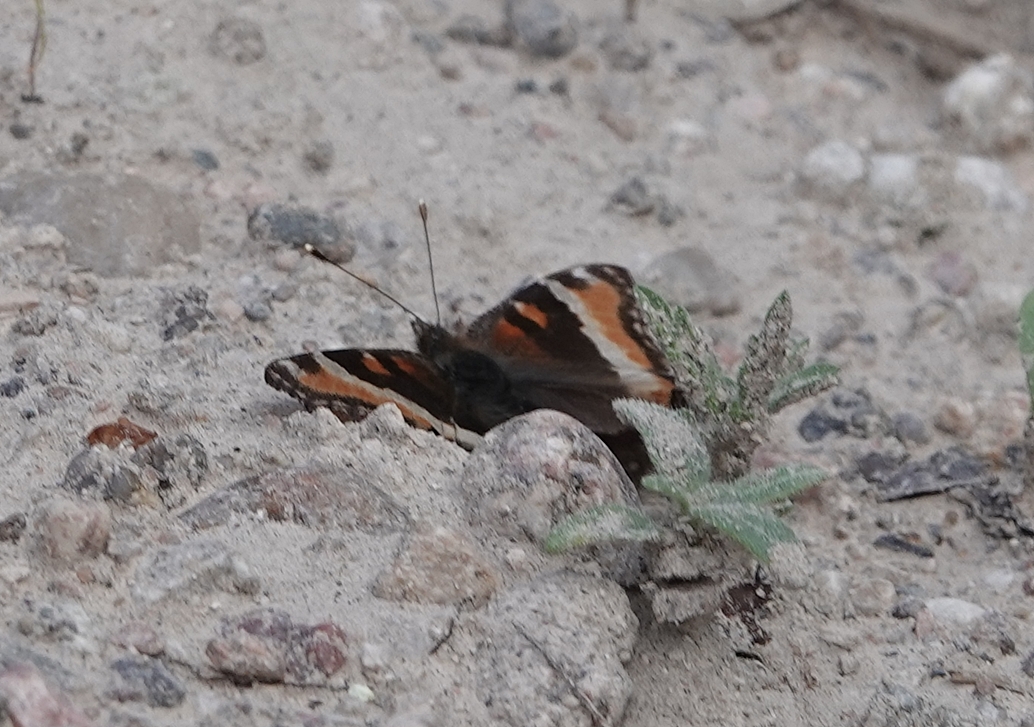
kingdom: Animalia
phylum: Arthropoda
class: Insecta
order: Lepidoptera
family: Nymphalidae
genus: Aglais
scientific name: Aglais milberti
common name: Milbert's tortoiseshell
